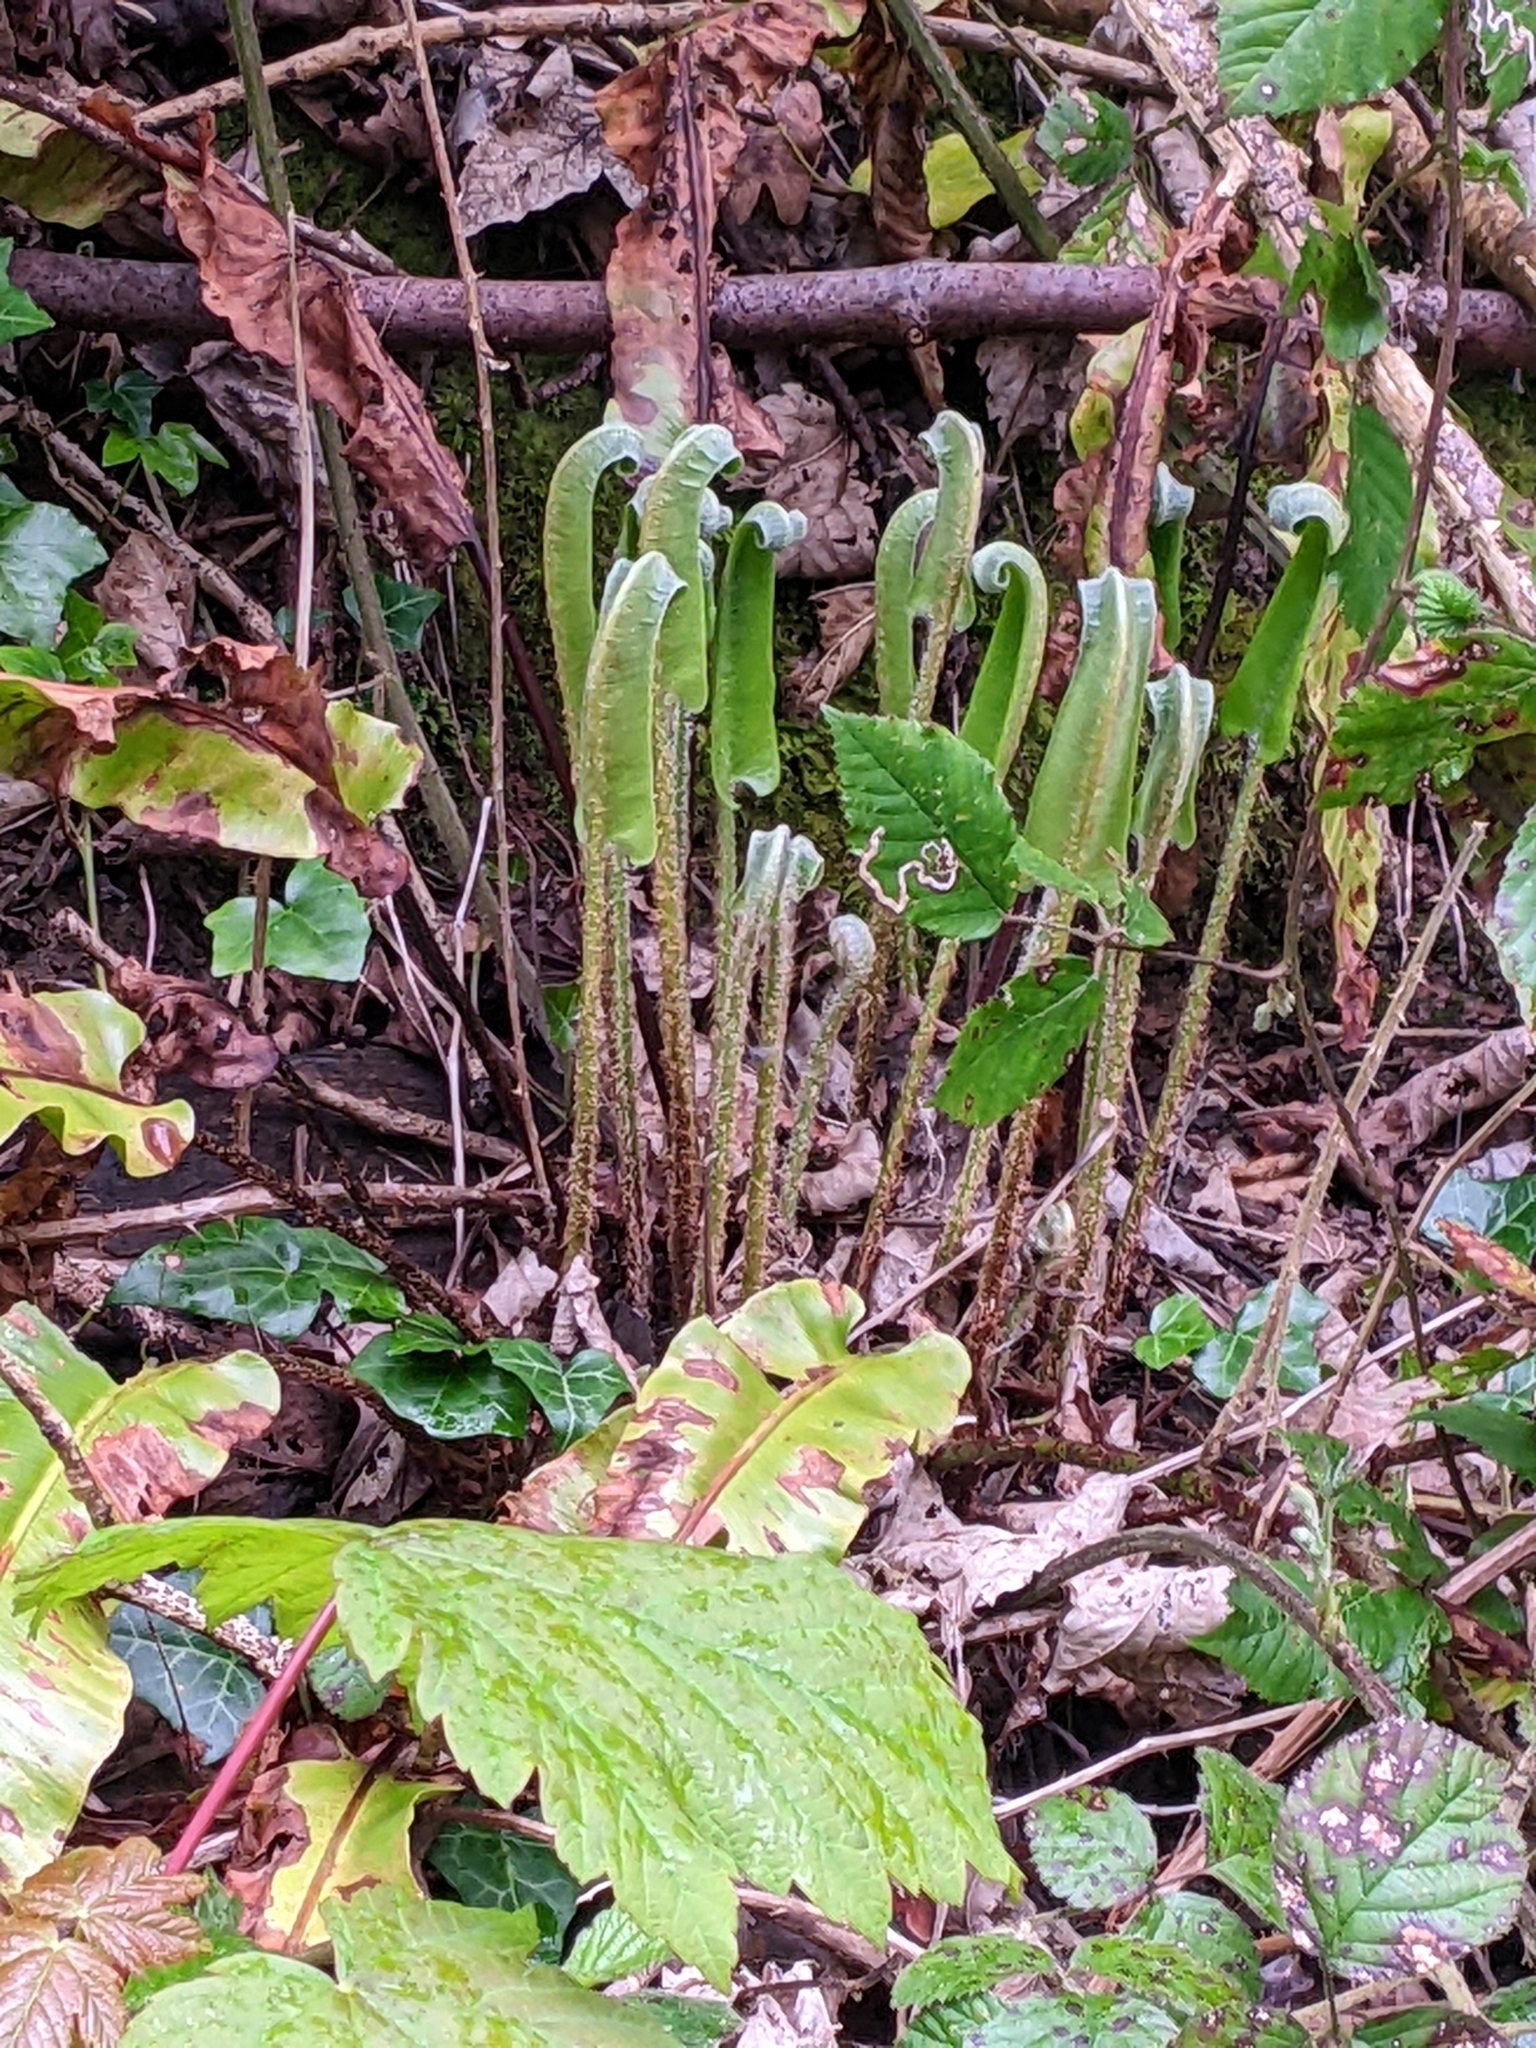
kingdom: Plantae
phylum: Tracheophyta
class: Polypodiopsida
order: Polypodiales
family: Aspleniaceae
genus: Asplenium
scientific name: Asplenium scolopendrium
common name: Hart's-tongue fern
